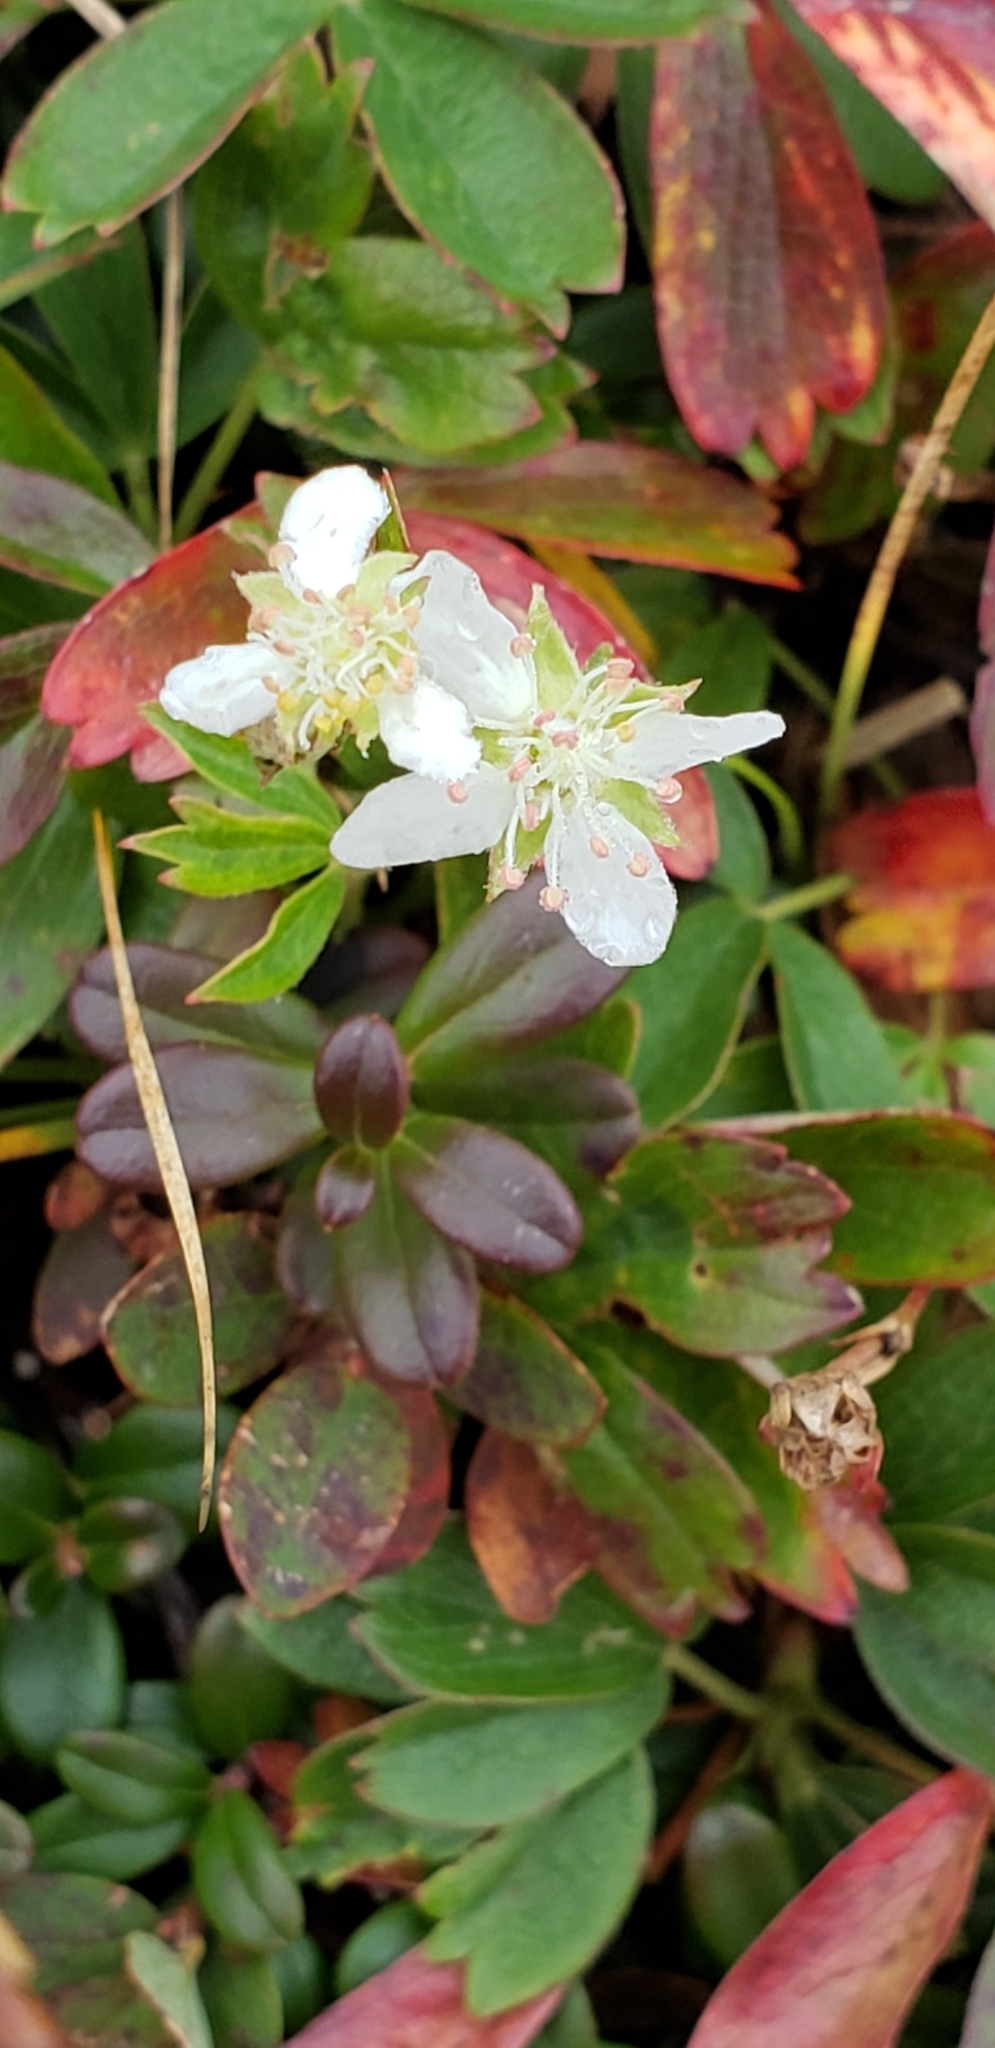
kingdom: Plantae
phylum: Tracheophyta
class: Magnoliopsida
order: Rosales
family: Rosaceae
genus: Sibbaldia
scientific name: Sibbaldia tridentata
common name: Three-toothed cinquefoil
